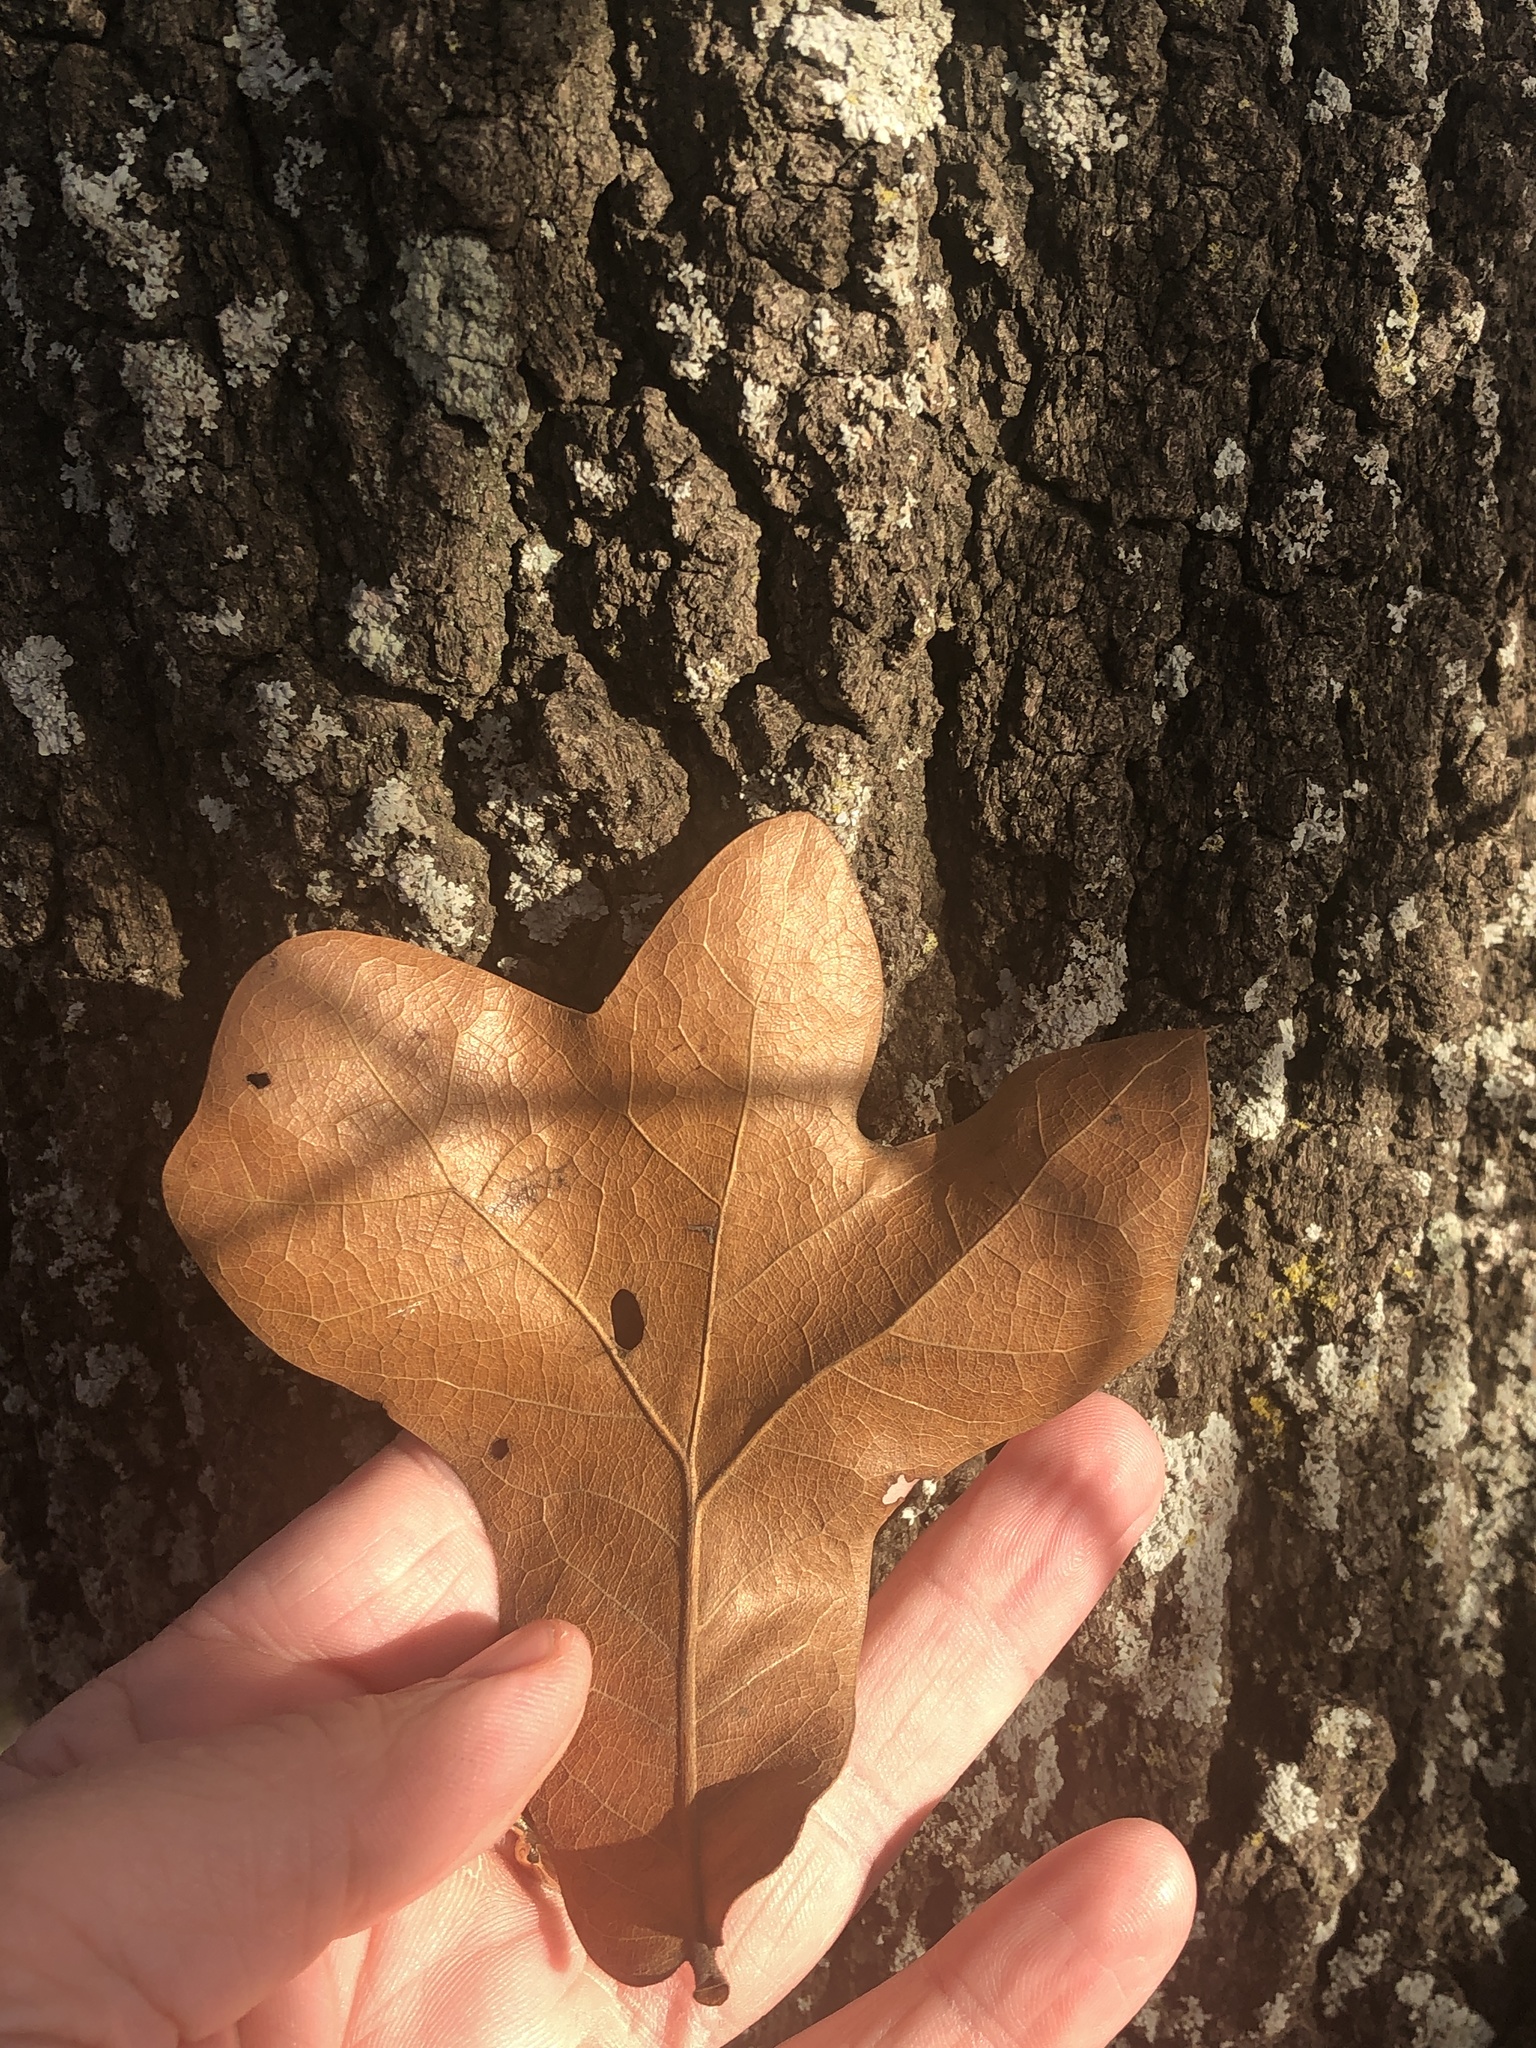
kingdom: Plantae
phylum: Tracheophyta
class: Magnoliopsida
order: Fagales
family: Fagaceae
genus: Quercus
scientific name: Quercus marilandica
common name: Blackjack oak
